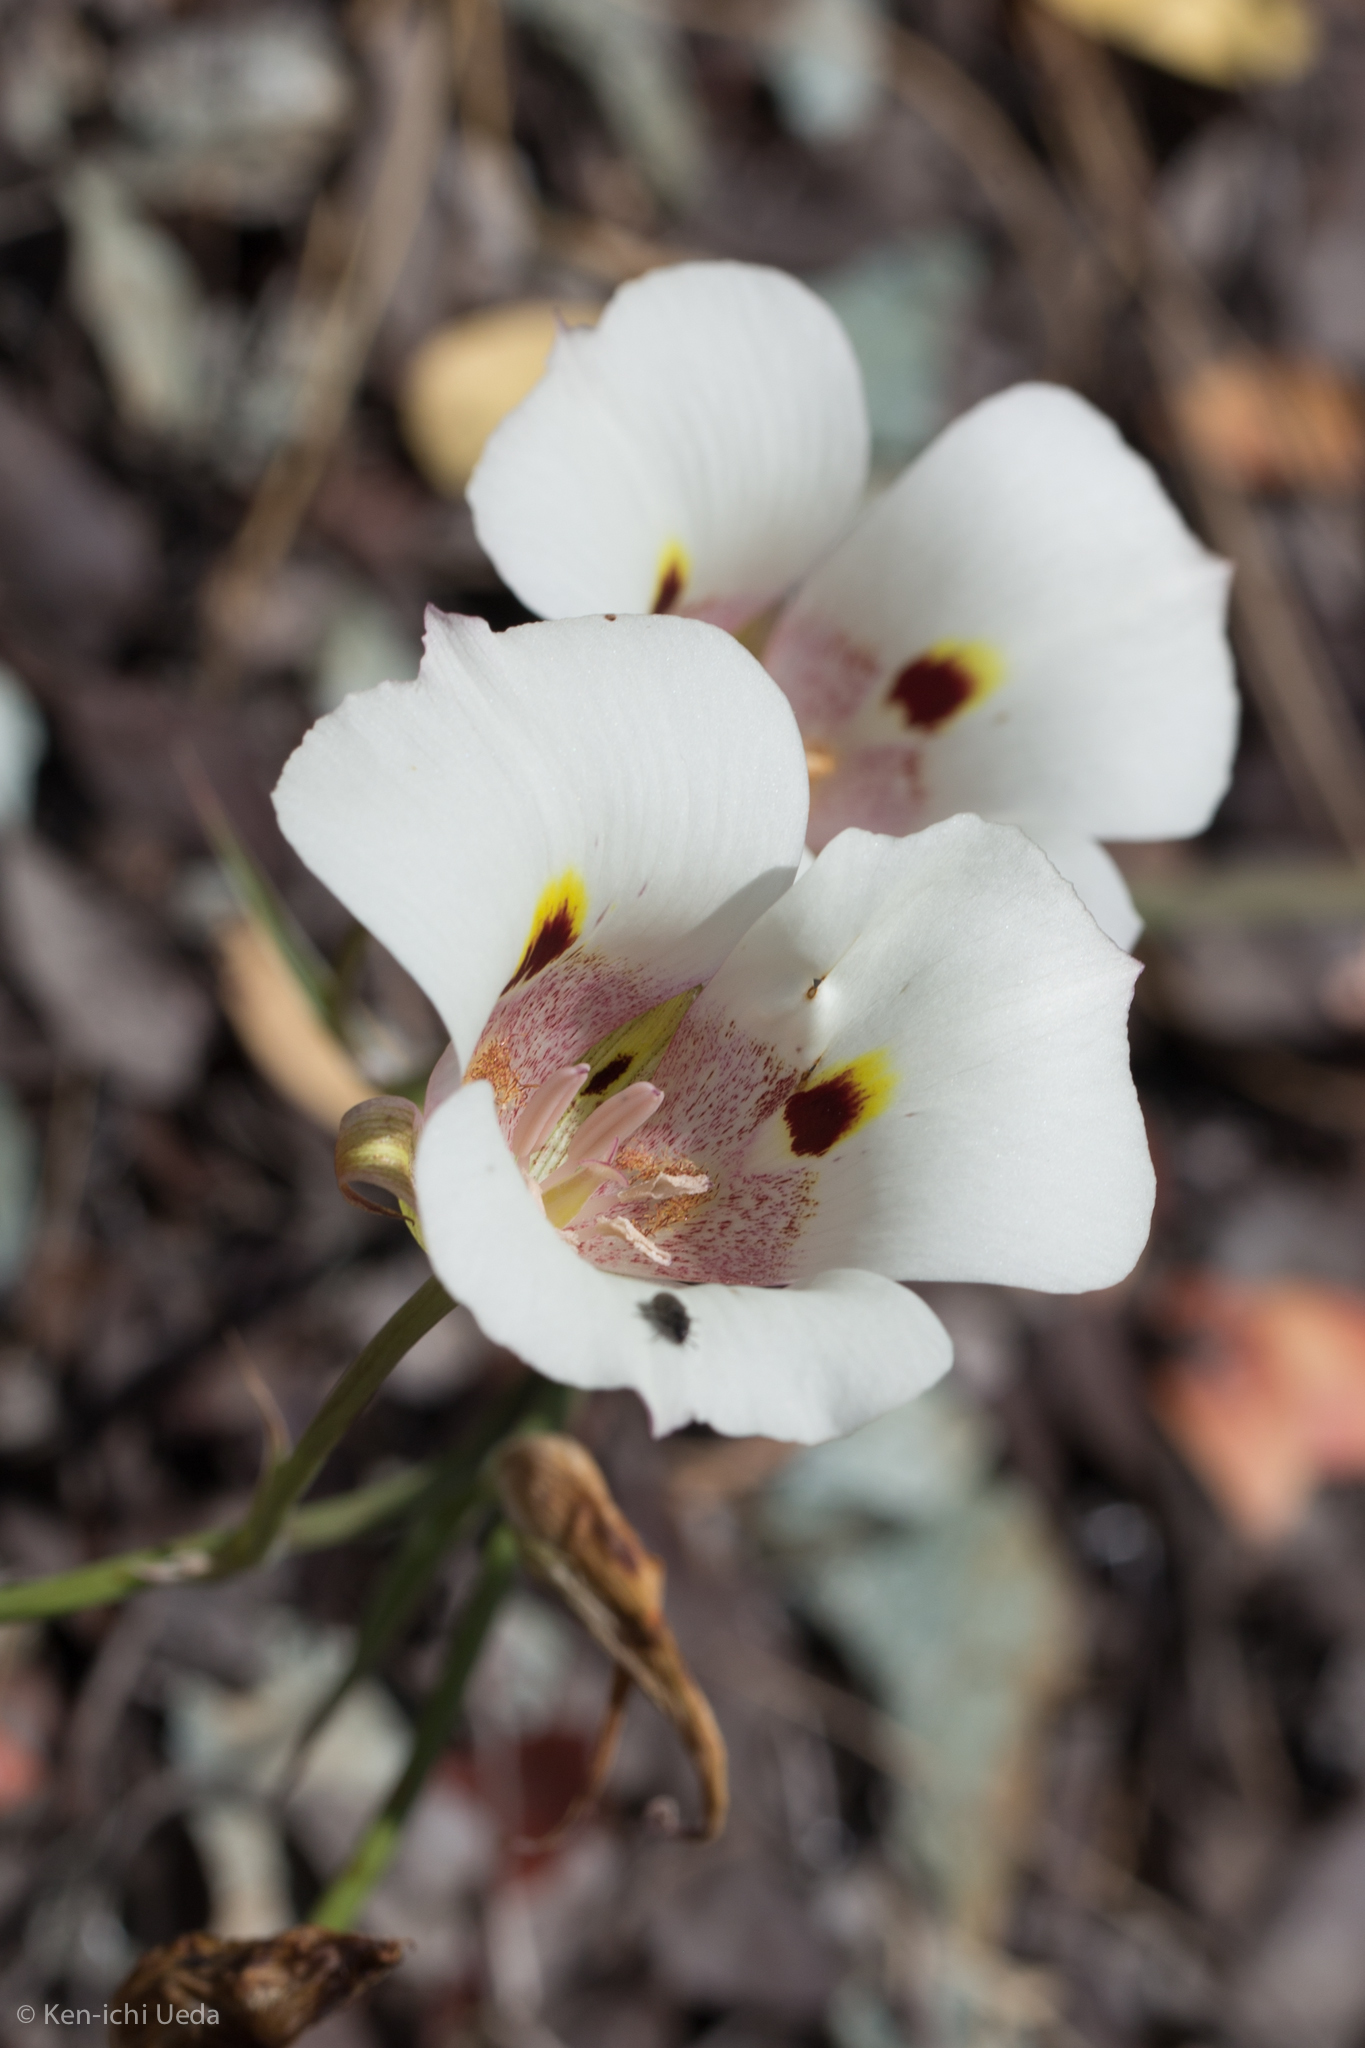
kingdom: Plantae
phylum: Tracheophyta
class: Liliopsida
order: Liliales
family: Liliaceae
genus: Calochortus
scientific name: Calochortus superbus
